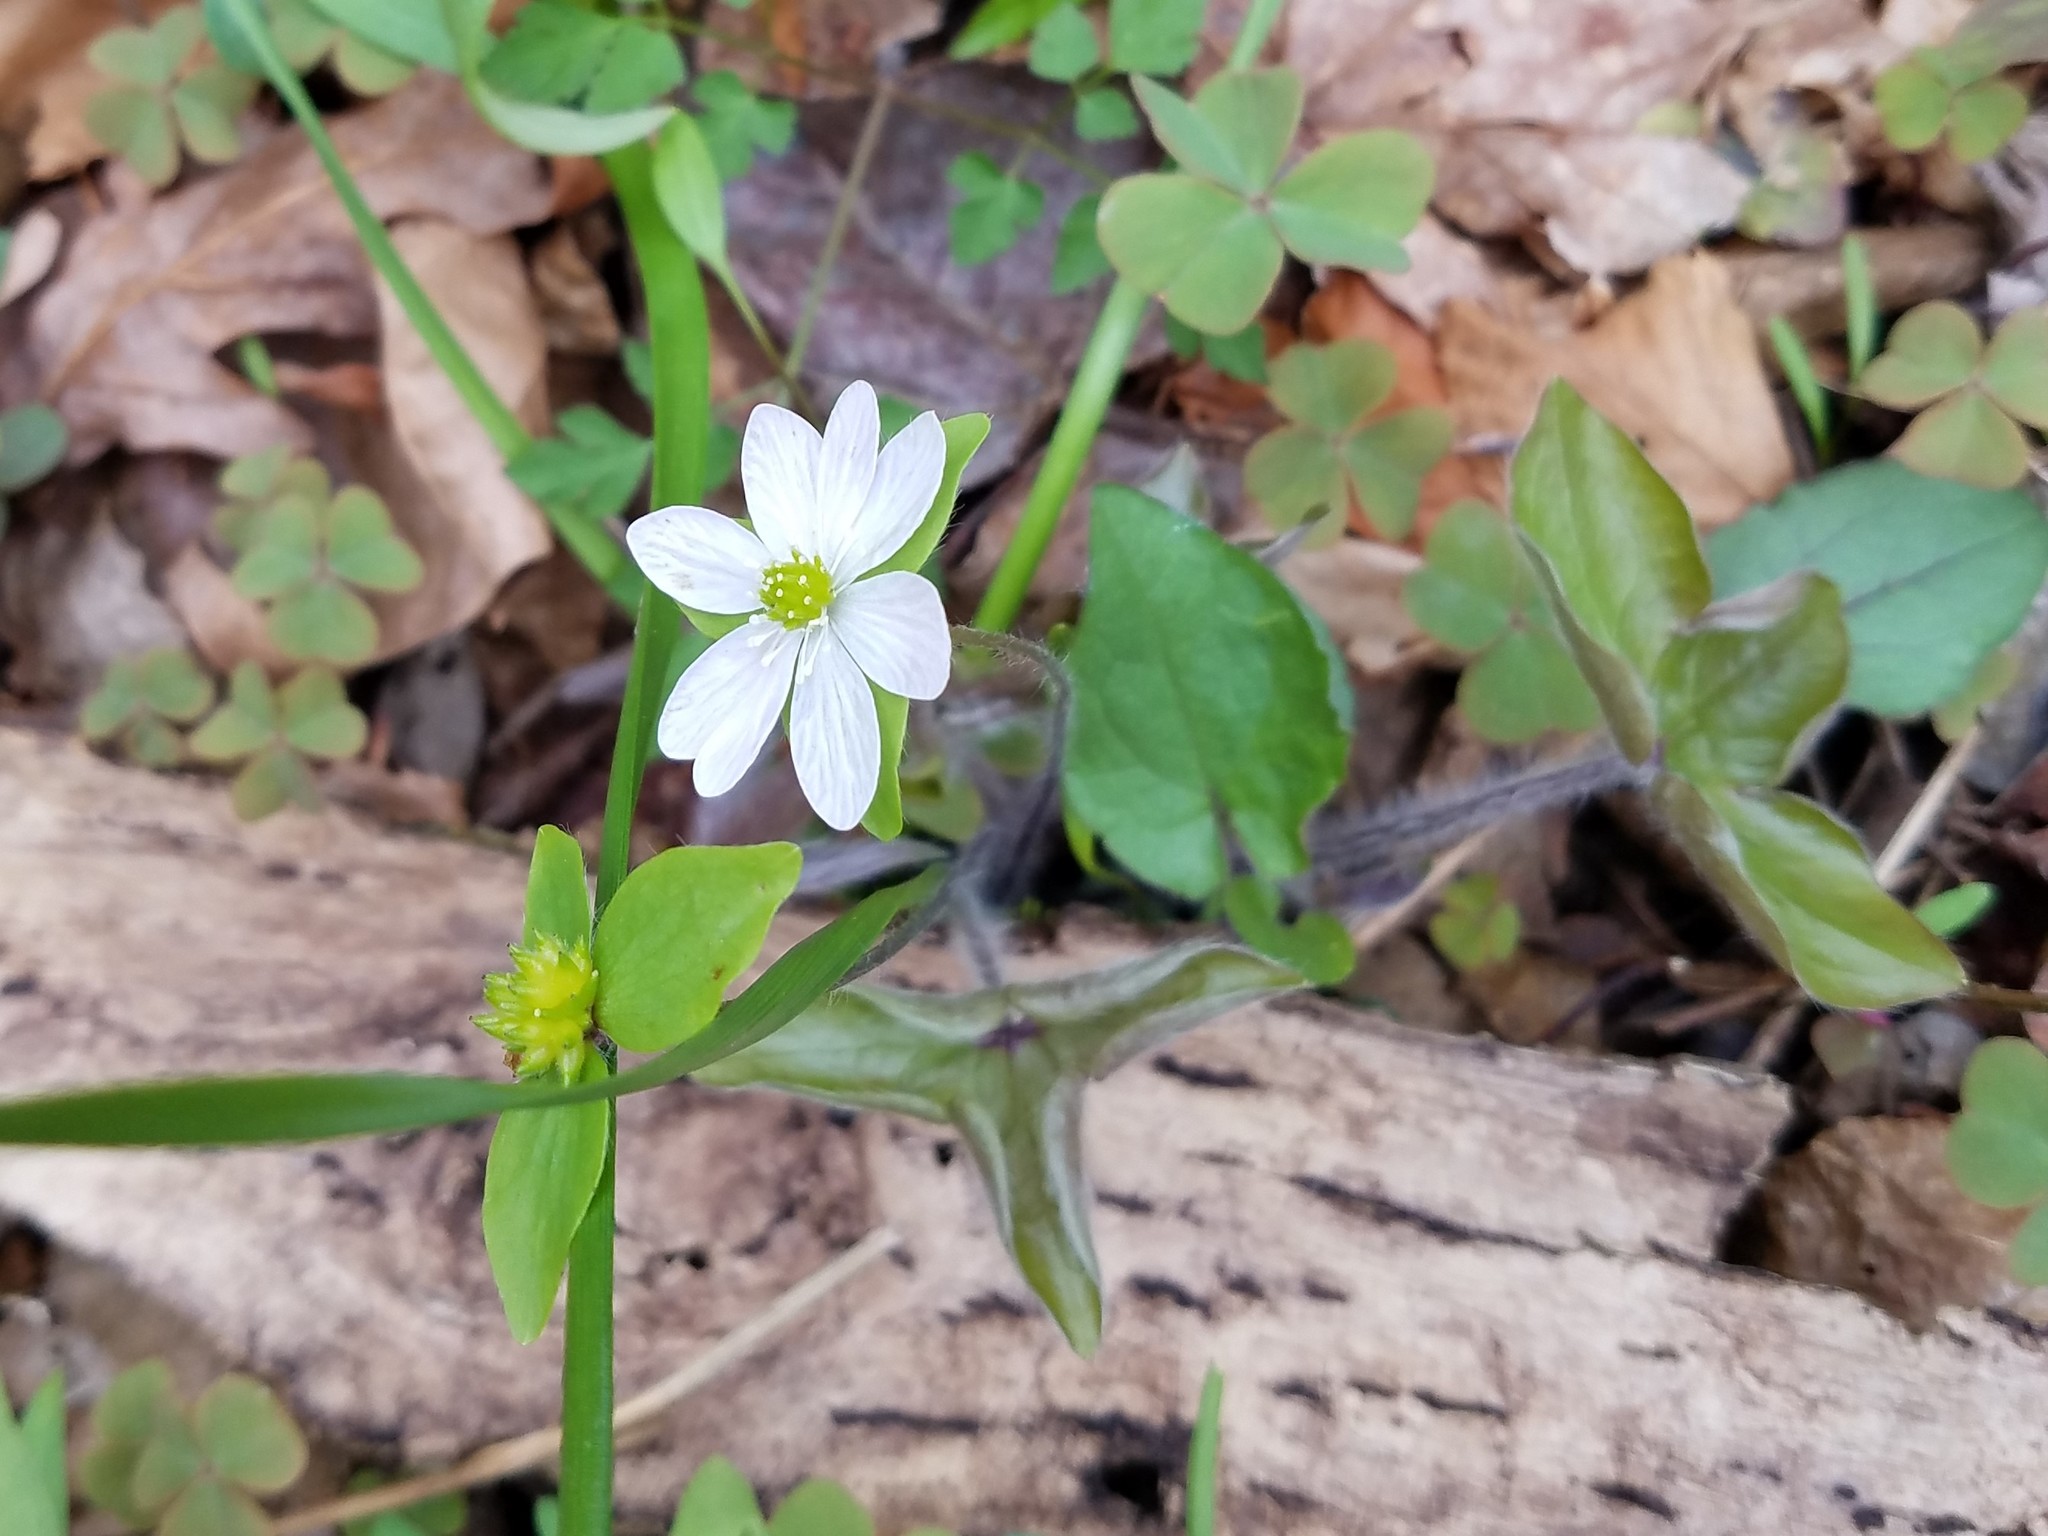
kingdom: Plantae
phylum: Tracheophyta
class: Magnoliopsida
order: Ranunculales
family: Ranunculaceae
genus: Hepatica
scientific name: Hepatica acutiloba
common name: Sharp-lobed hepatica
